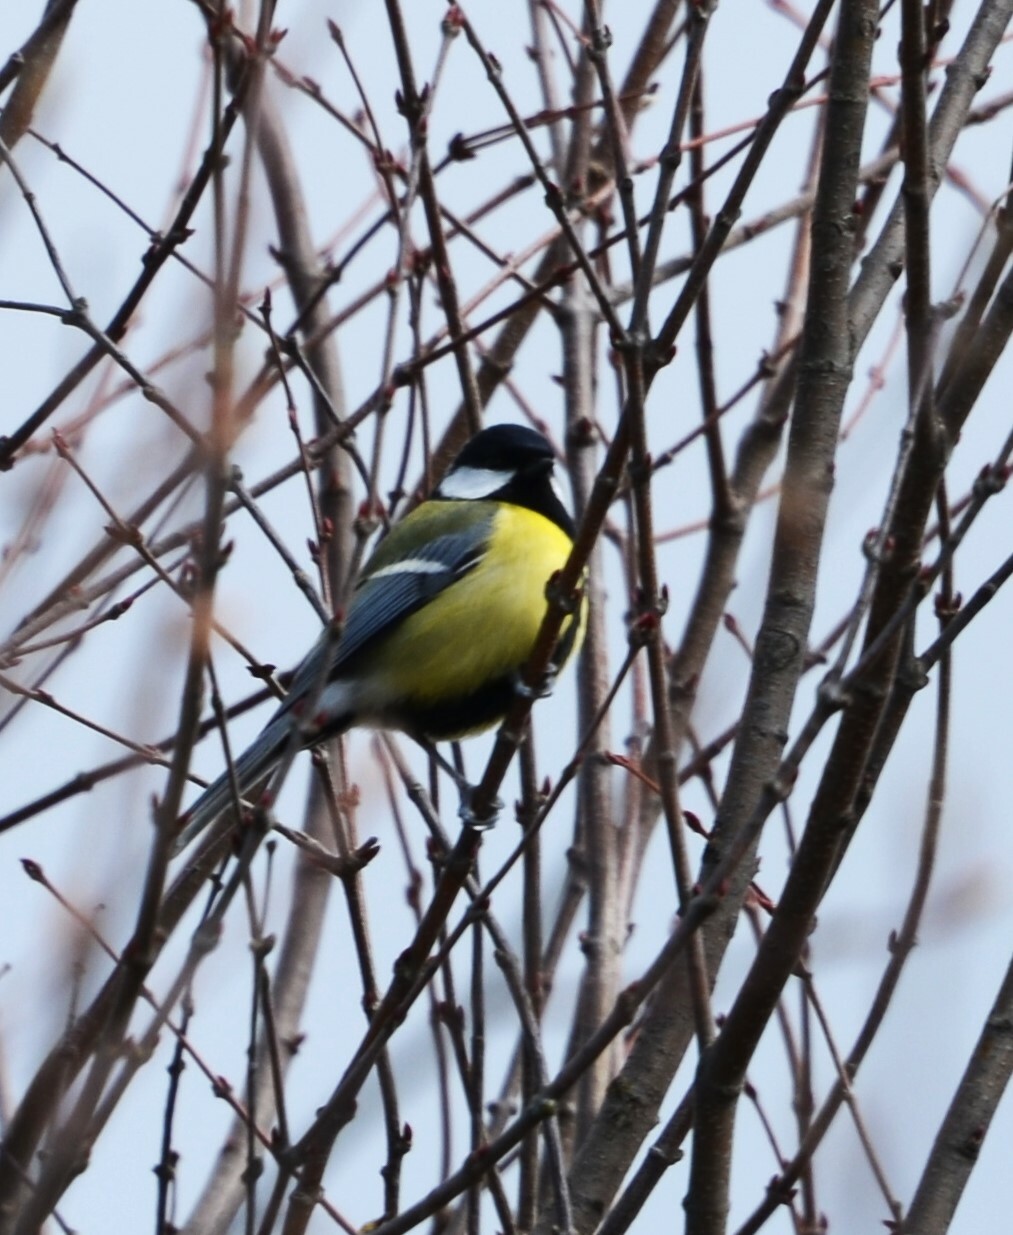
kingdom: Animalia
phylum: Chordata
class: Aves
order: Passeriformes
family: Paridae
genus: Parus
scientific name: Parus major
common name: Great tit
